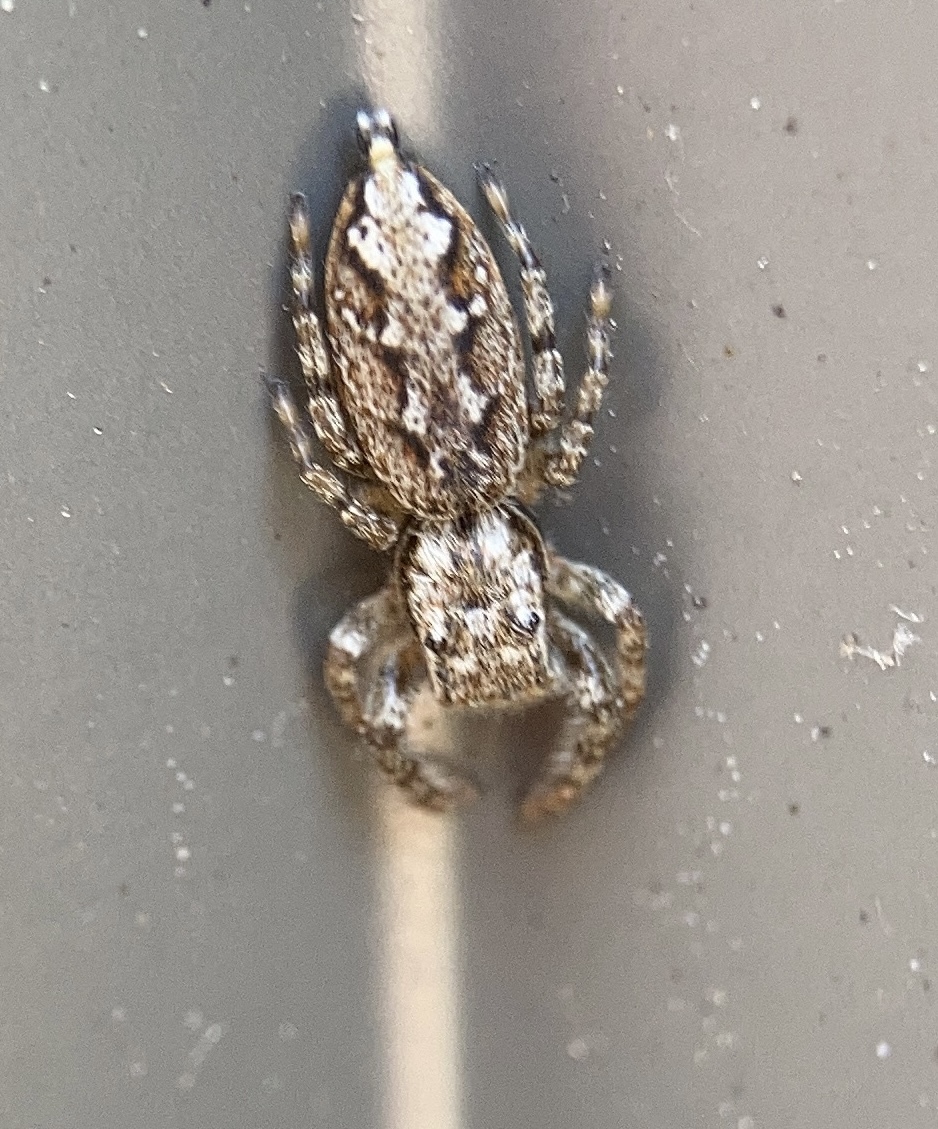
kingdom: Animalia
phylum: Arthropoda
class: Arachnida
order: Araneae
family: Salticidae
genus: Marpissa
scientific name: Marpissa muscosa
